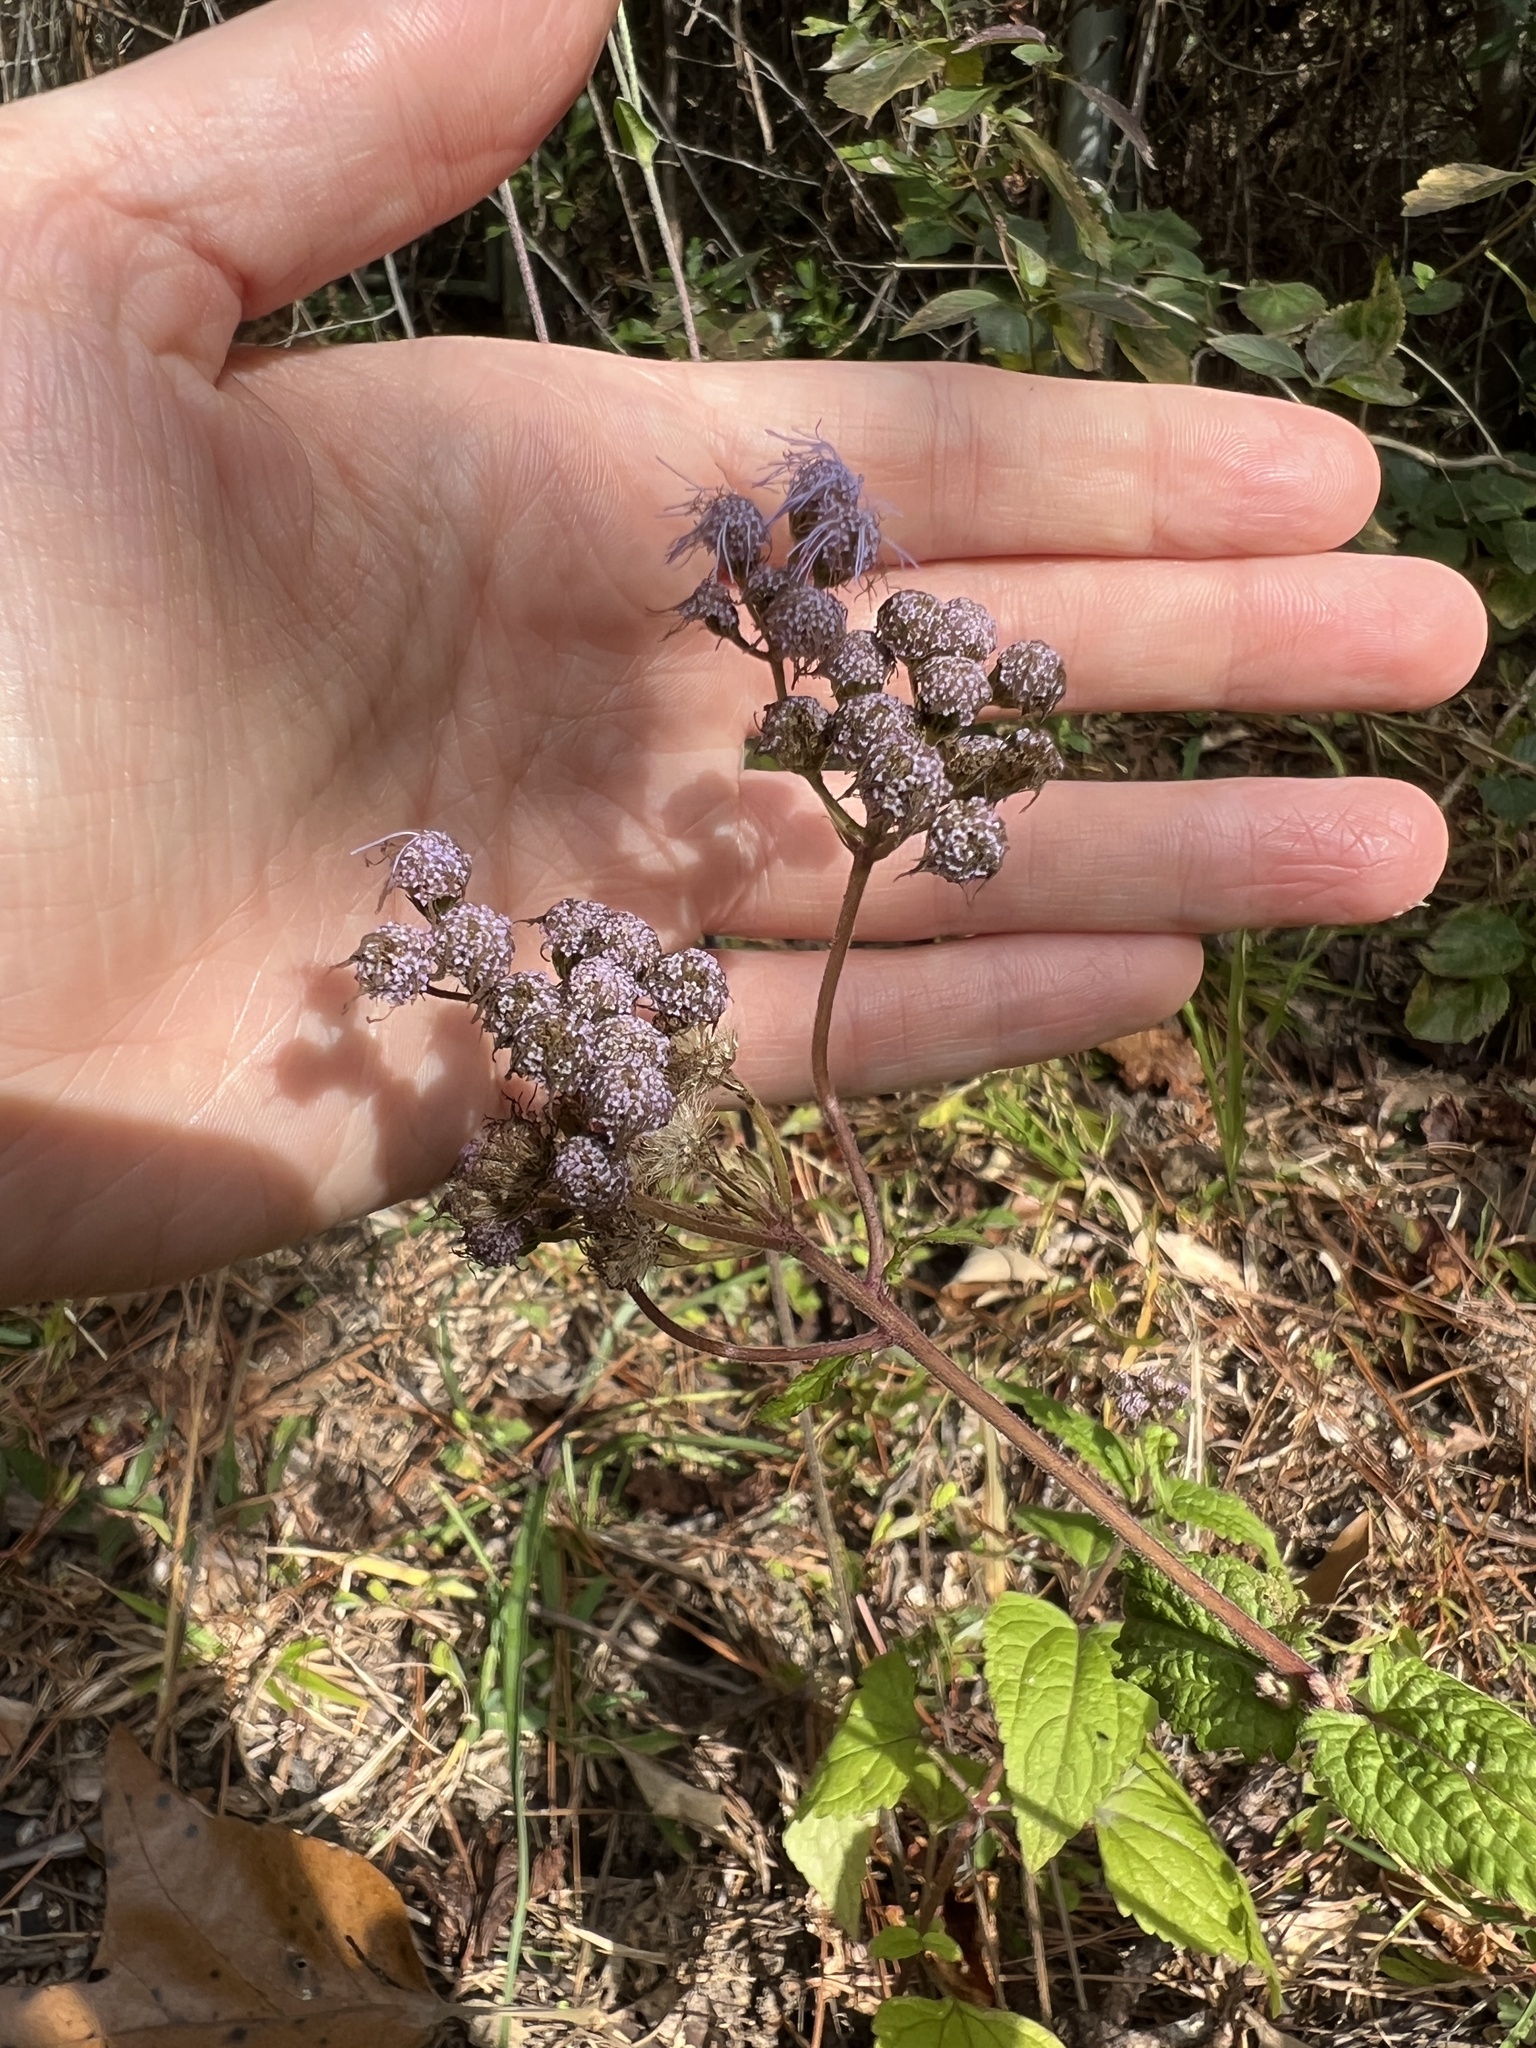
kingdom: Plantae
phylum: Tracheophyta
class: Magnoliopsida
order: Asterales
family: Asteraceae
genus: Conoclinium
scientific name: Conoclinium coelestinum
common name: Blue mistflower
